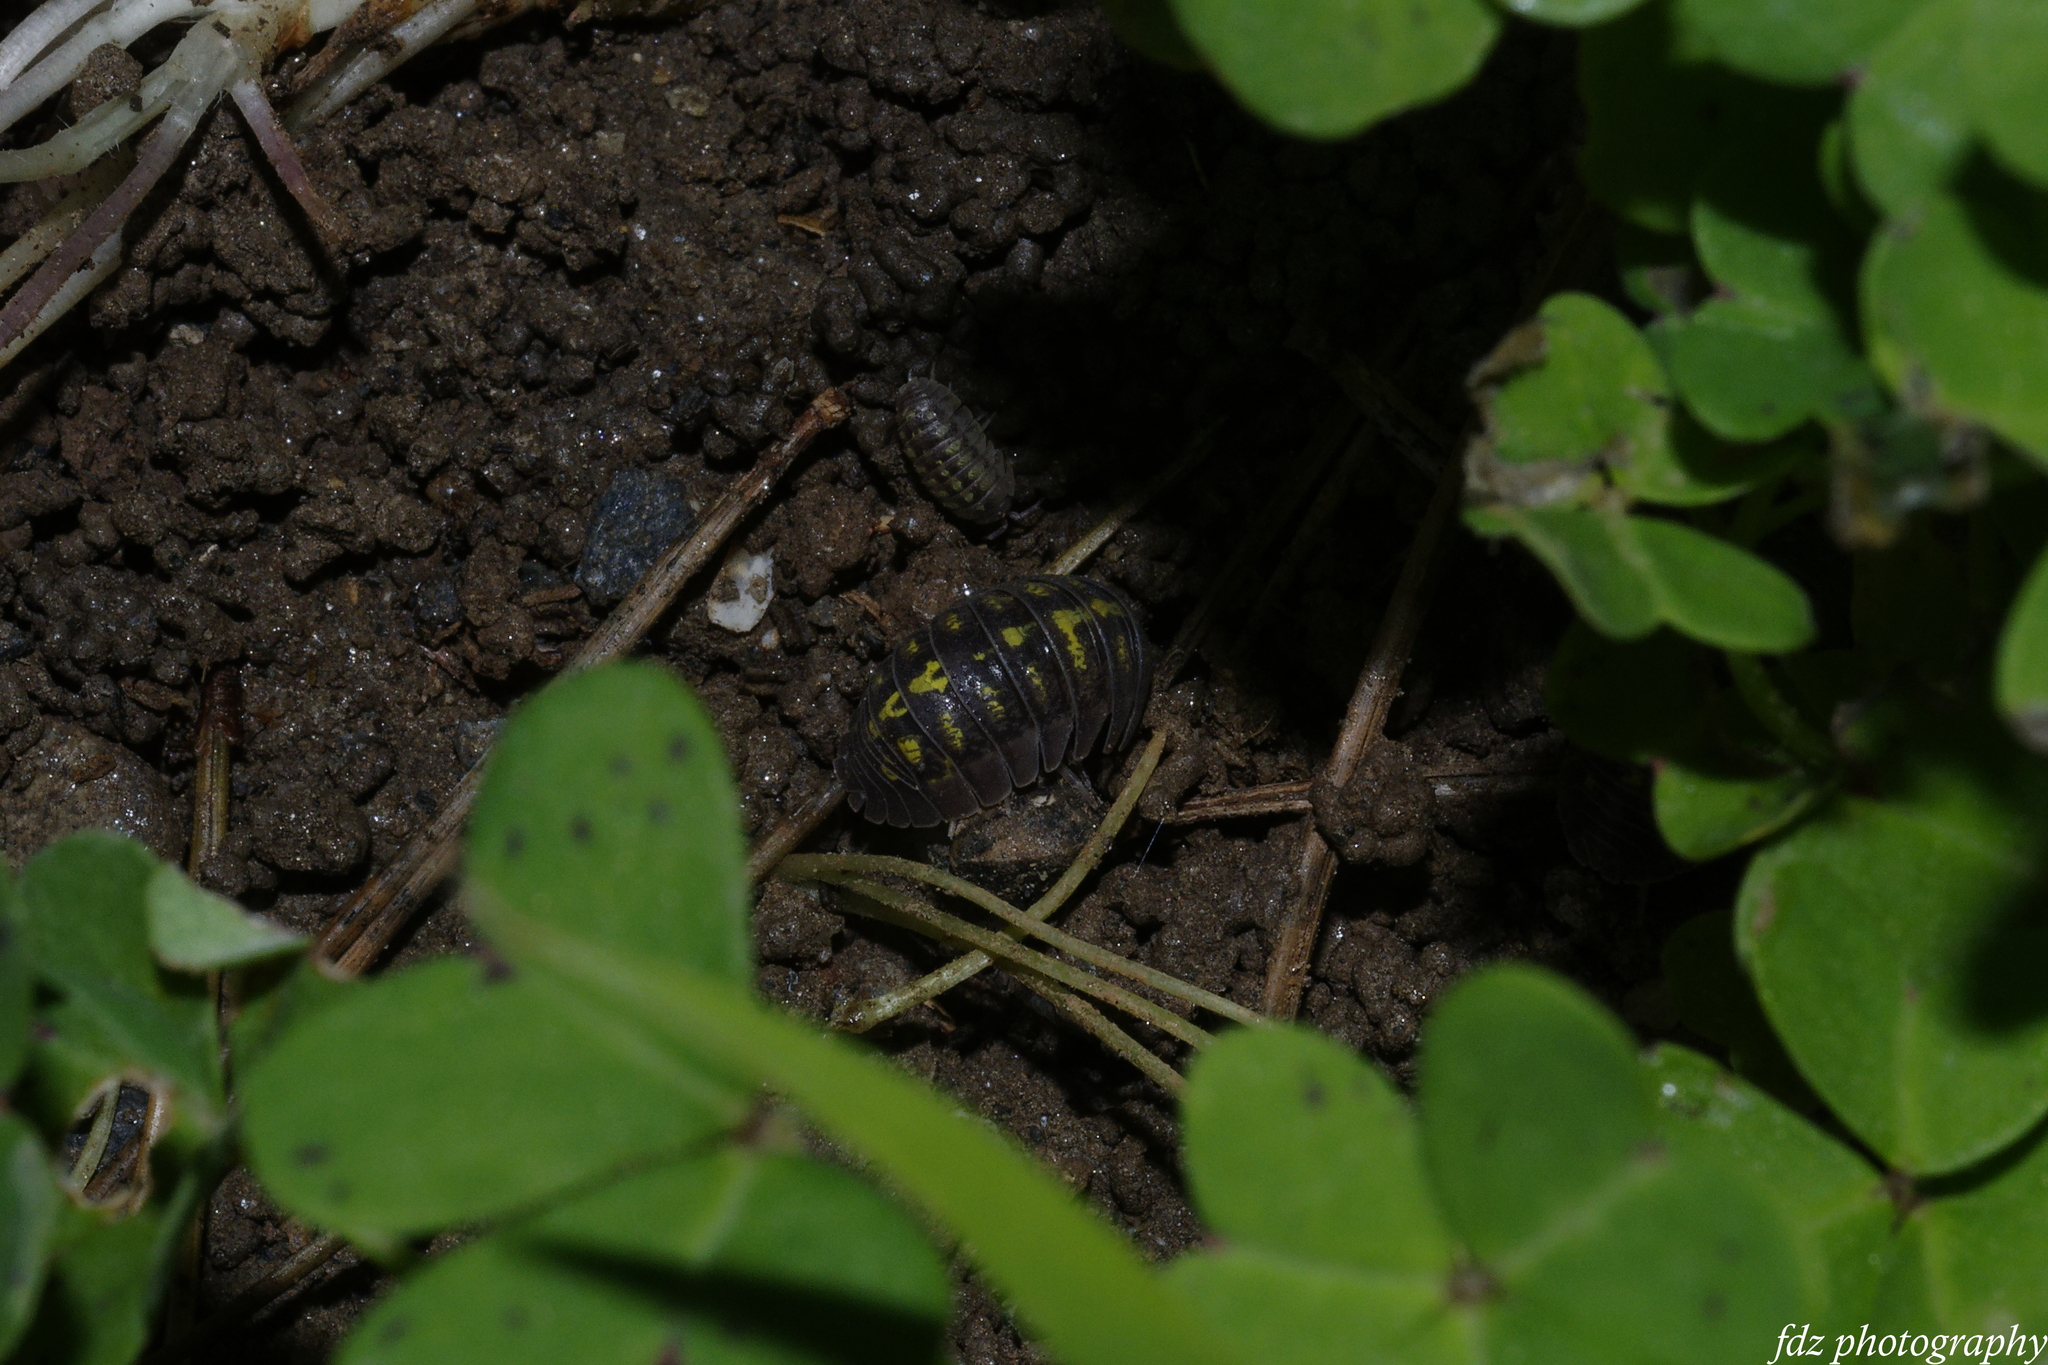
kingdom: Animalia
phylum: Arthropoda
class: Malacostraca
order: Isopoda
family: Armadillidiidae
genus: Armadillidium
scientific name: Armadillidium granulatum
